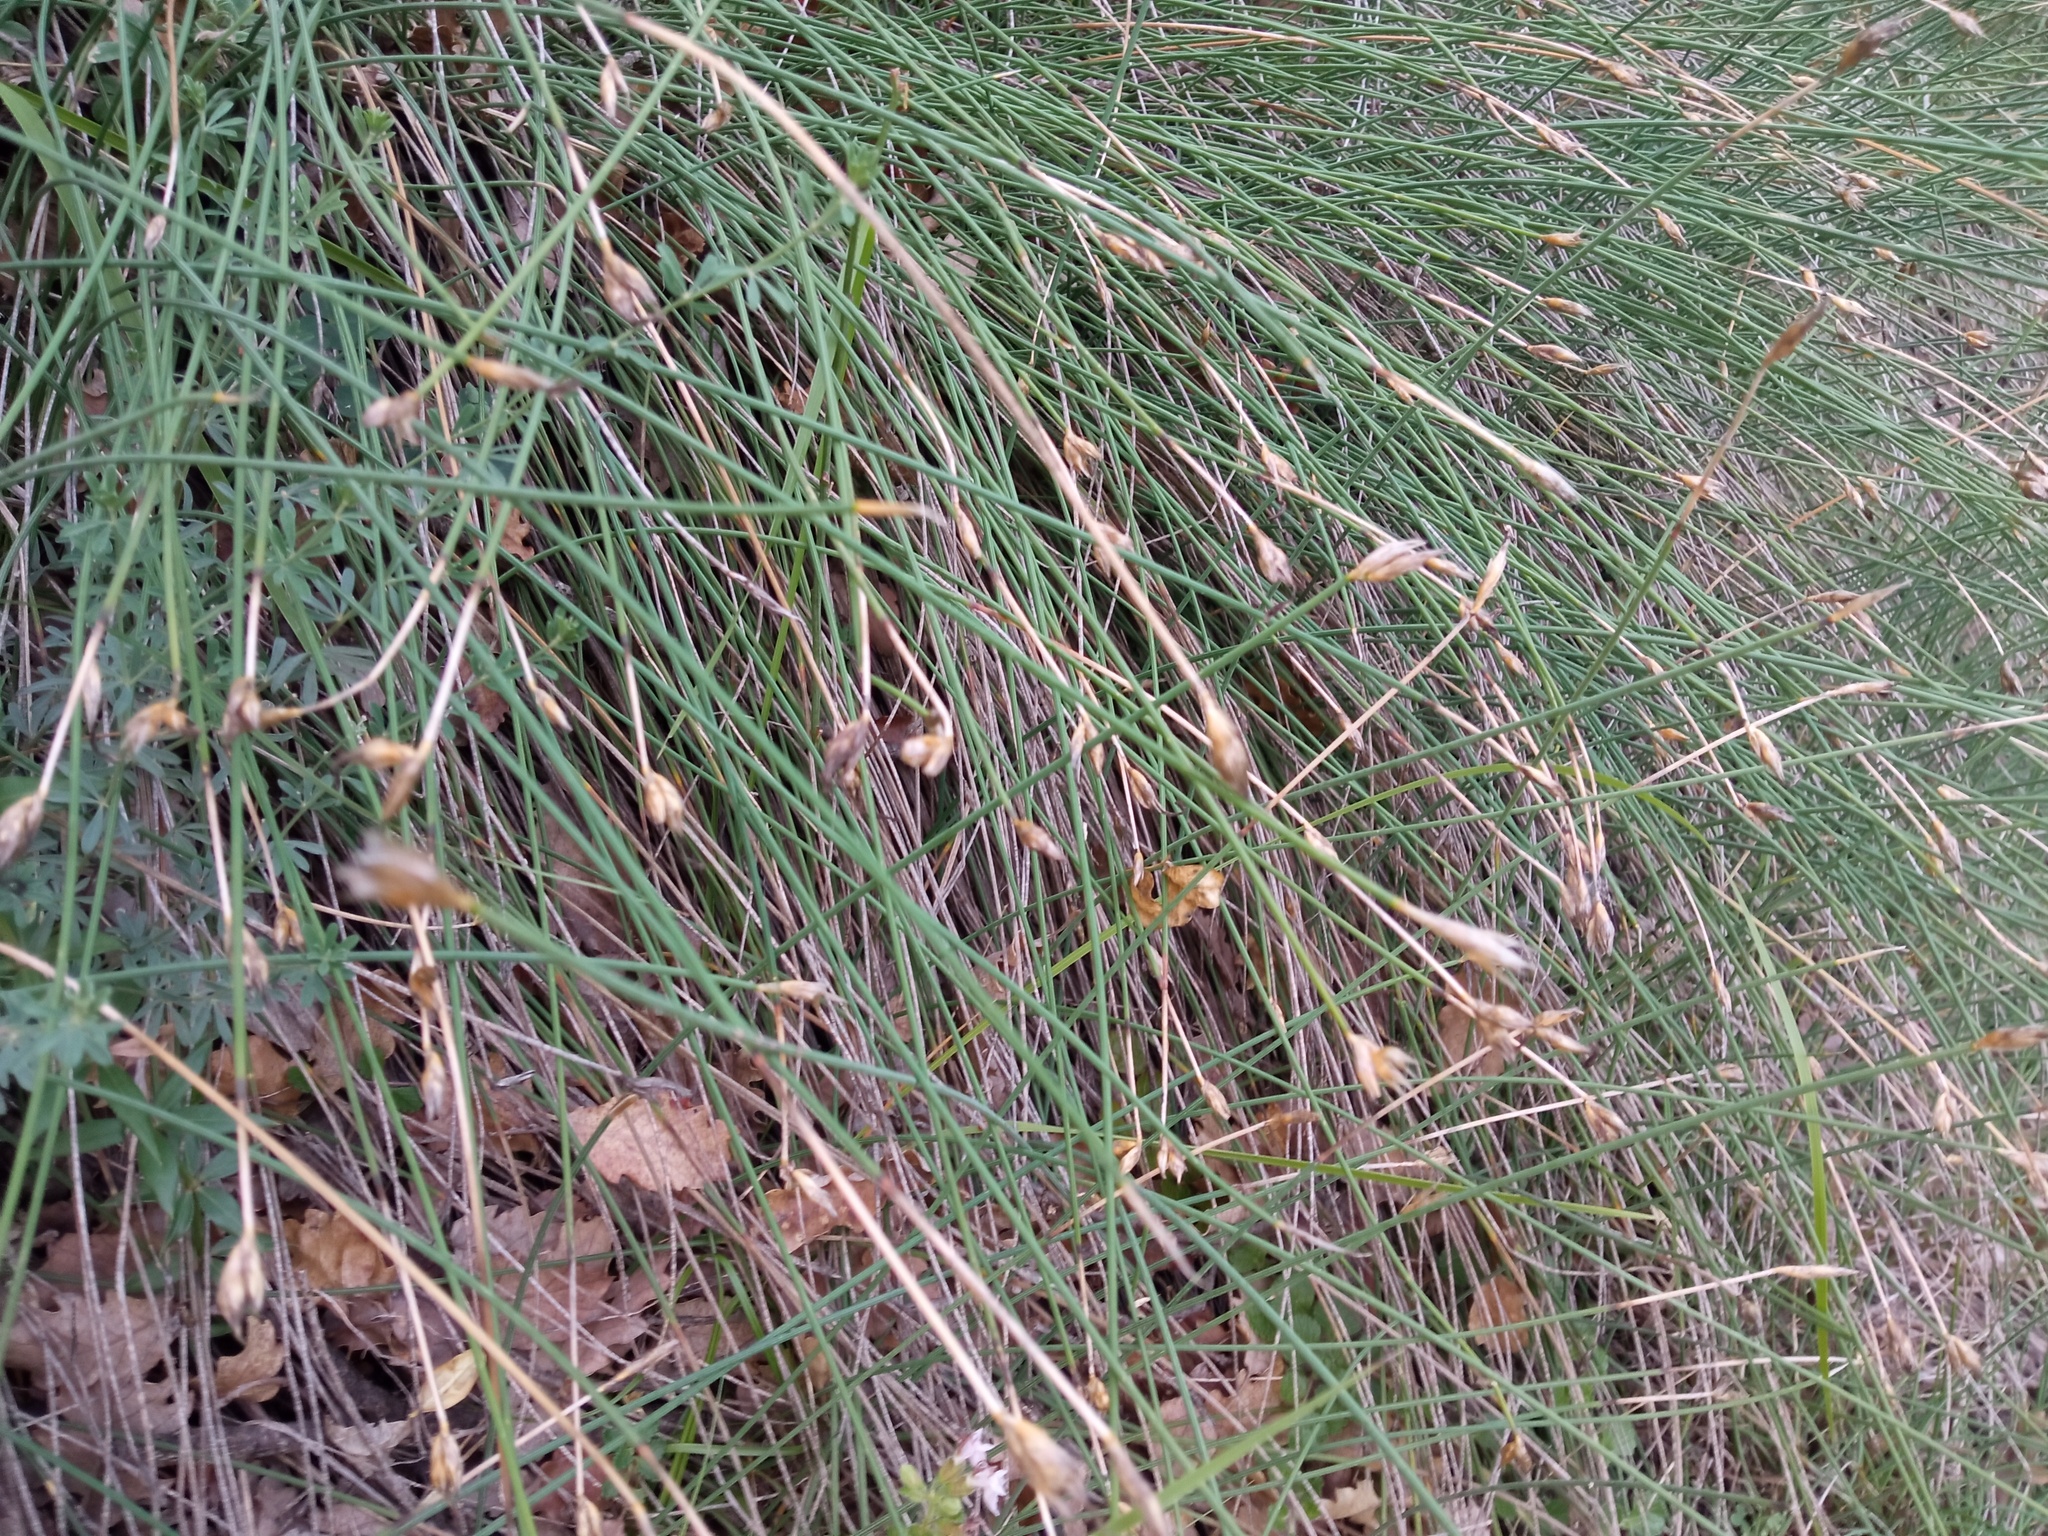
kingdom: Plantae
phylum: Tracheophyta
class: Liliopsida
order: Asparagales
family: Asparagaceae
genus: Aphyllanthes
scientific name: Aphyllanthes monspeliensis
